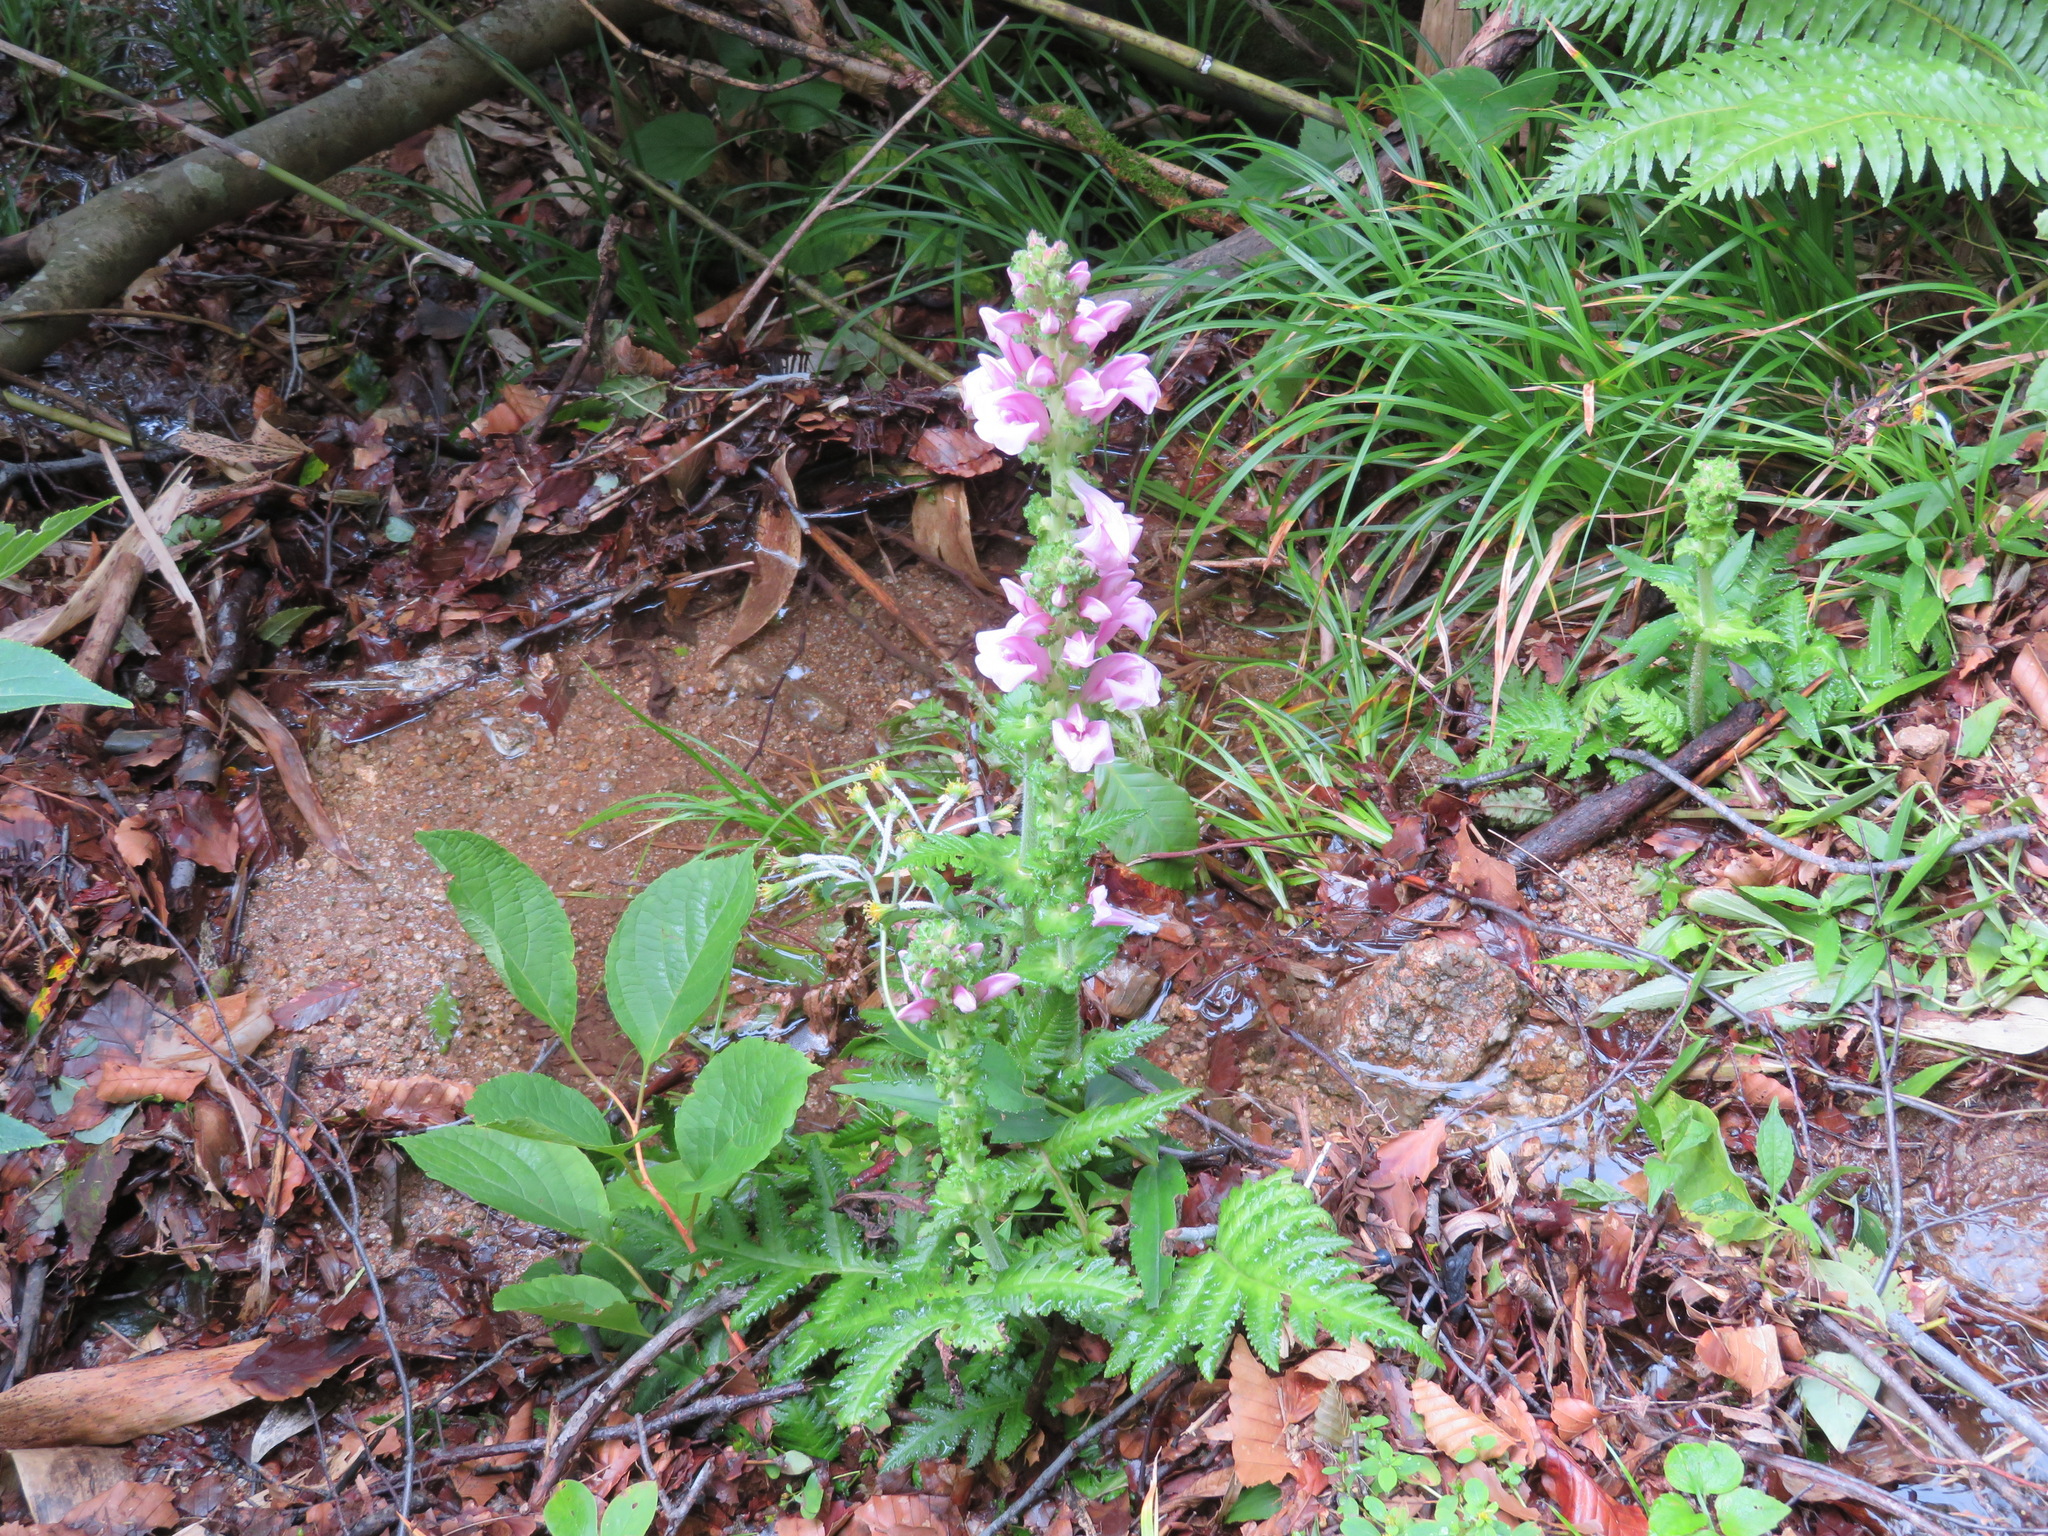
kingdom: Plantae
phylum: Tracheophyta
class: Magnoliopsida
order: Lamiales
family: Orobanchaceae
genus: Pedicularis
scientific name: Pedicularis nipponica
